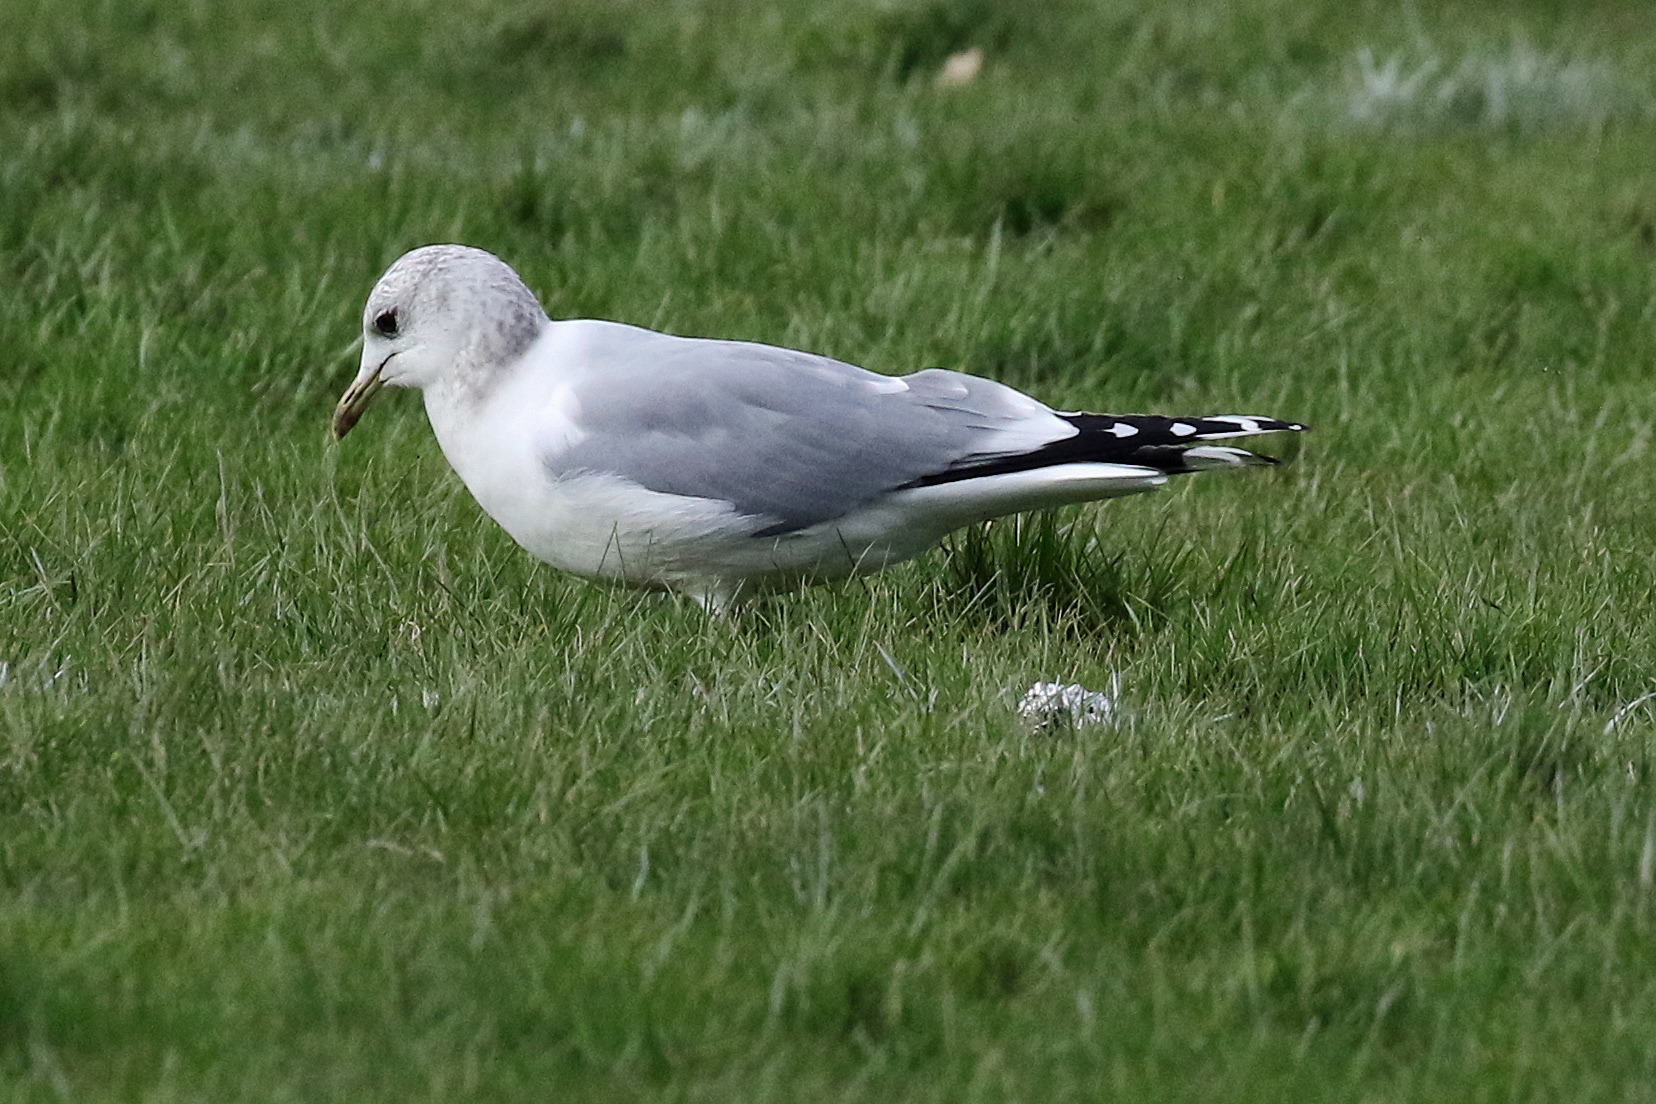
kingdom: Animalia
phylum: Chordata
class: Aves
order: Charadriiformes
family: Laridae
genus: Larus
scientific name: Larus canus
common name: Mew gull
